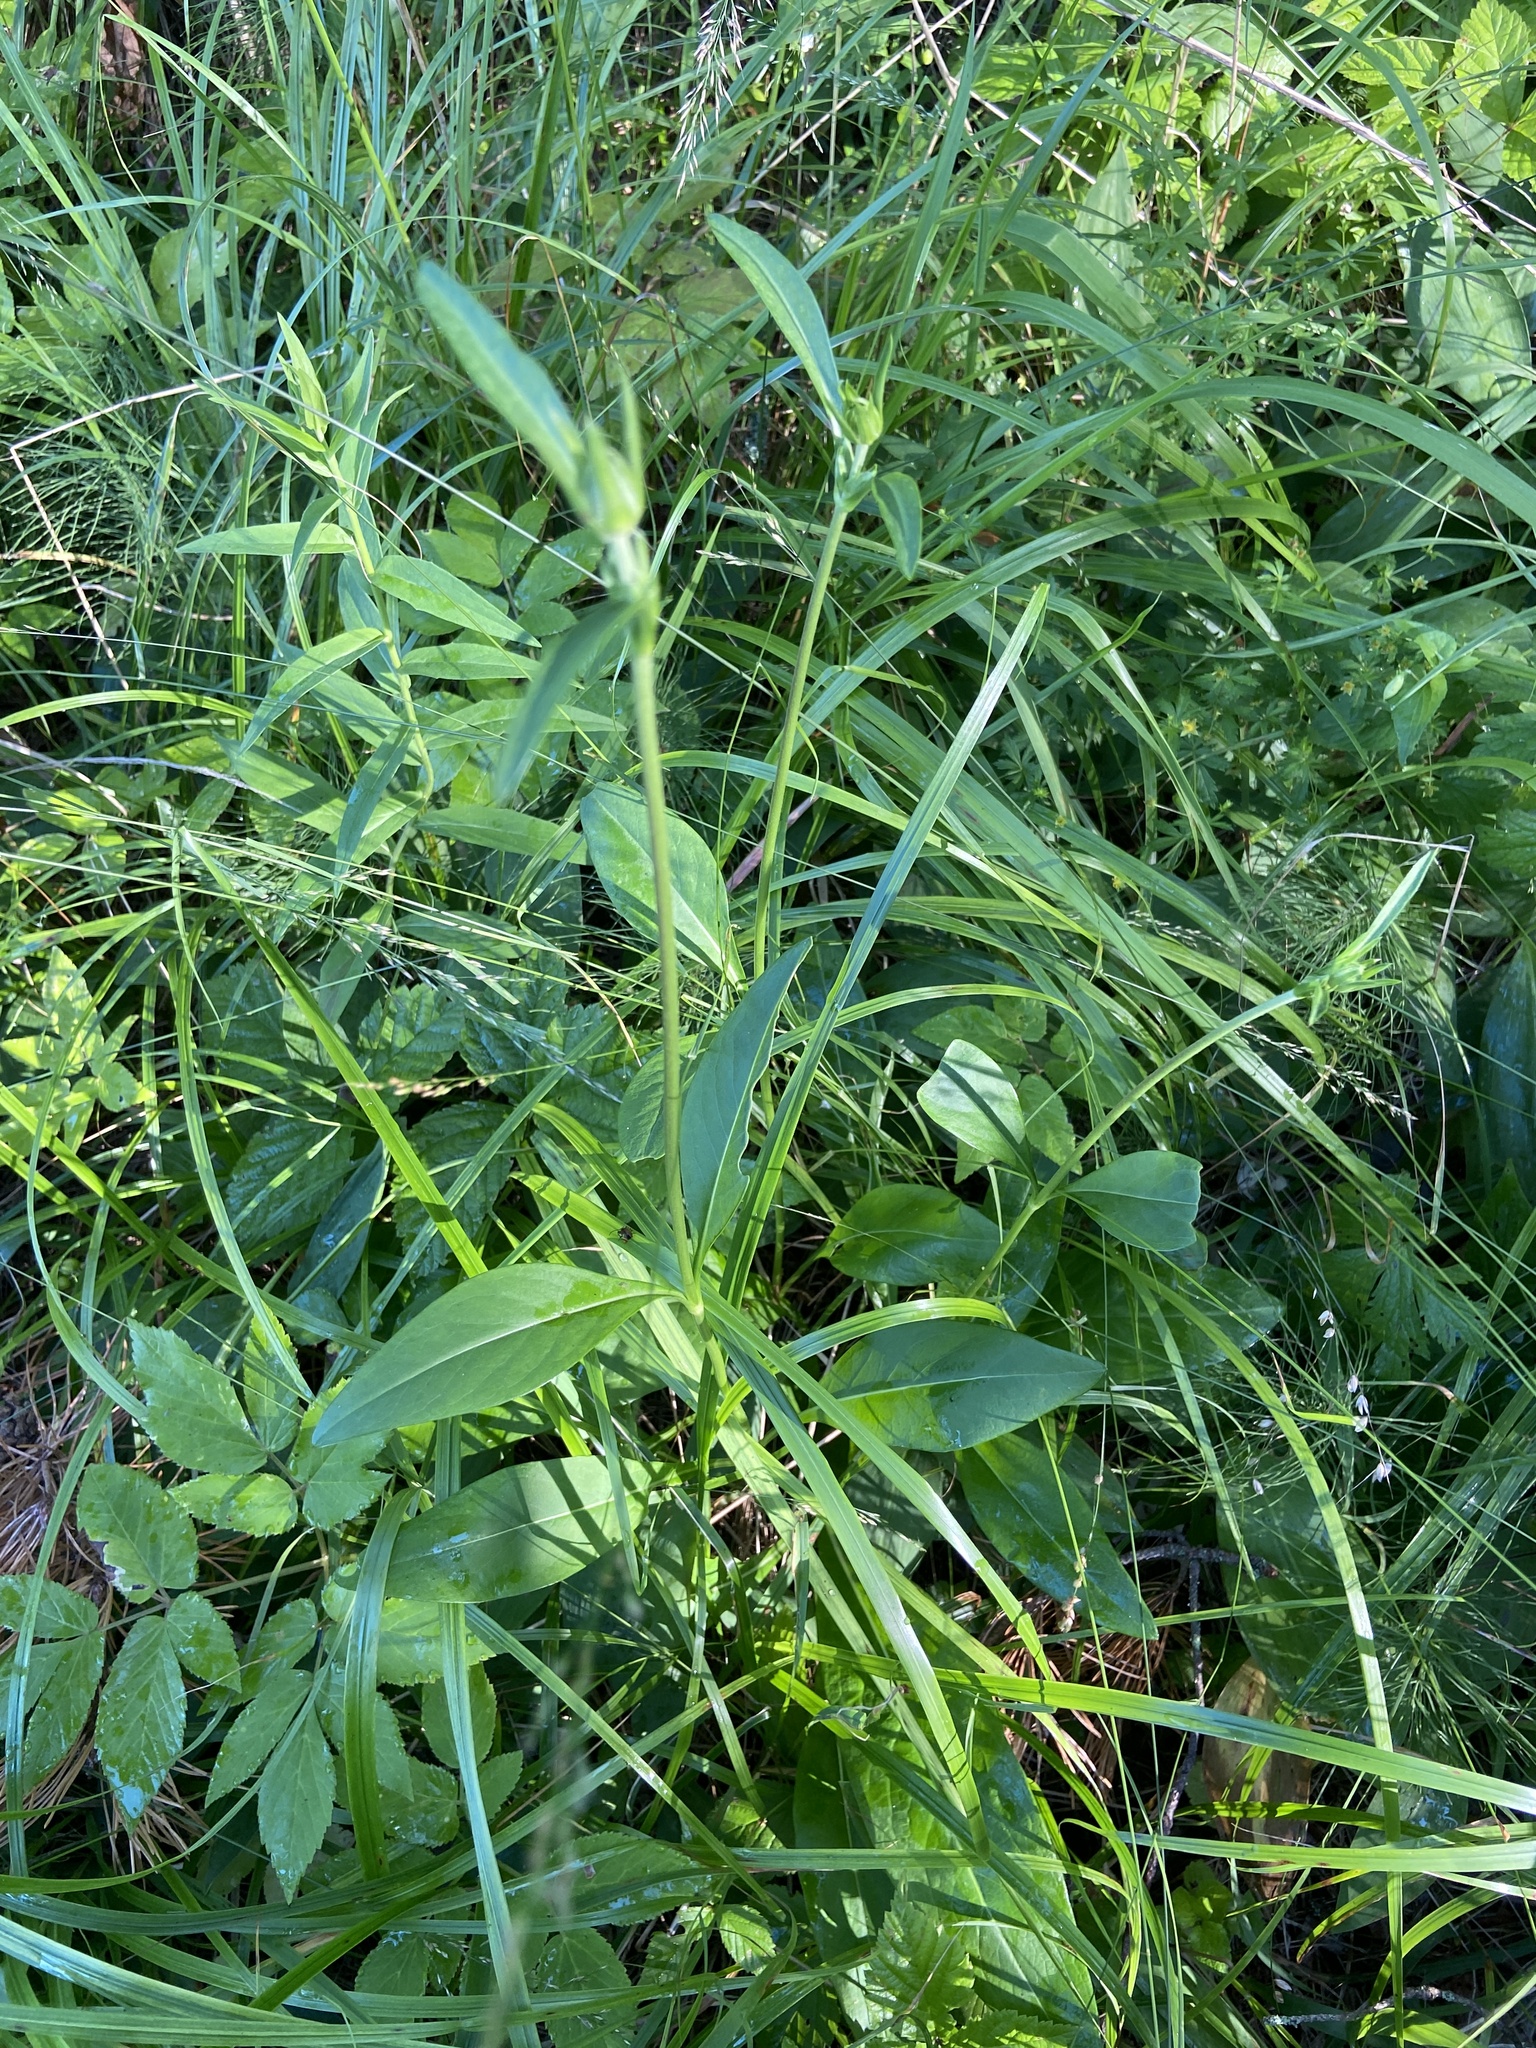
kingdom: Plantae
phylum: Tracheophyta
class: Magnoliopsida
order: Dipsacales
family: Caprifoliaceae
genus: Succisa
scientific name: Succisa pratensis
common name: Devil's-bit
